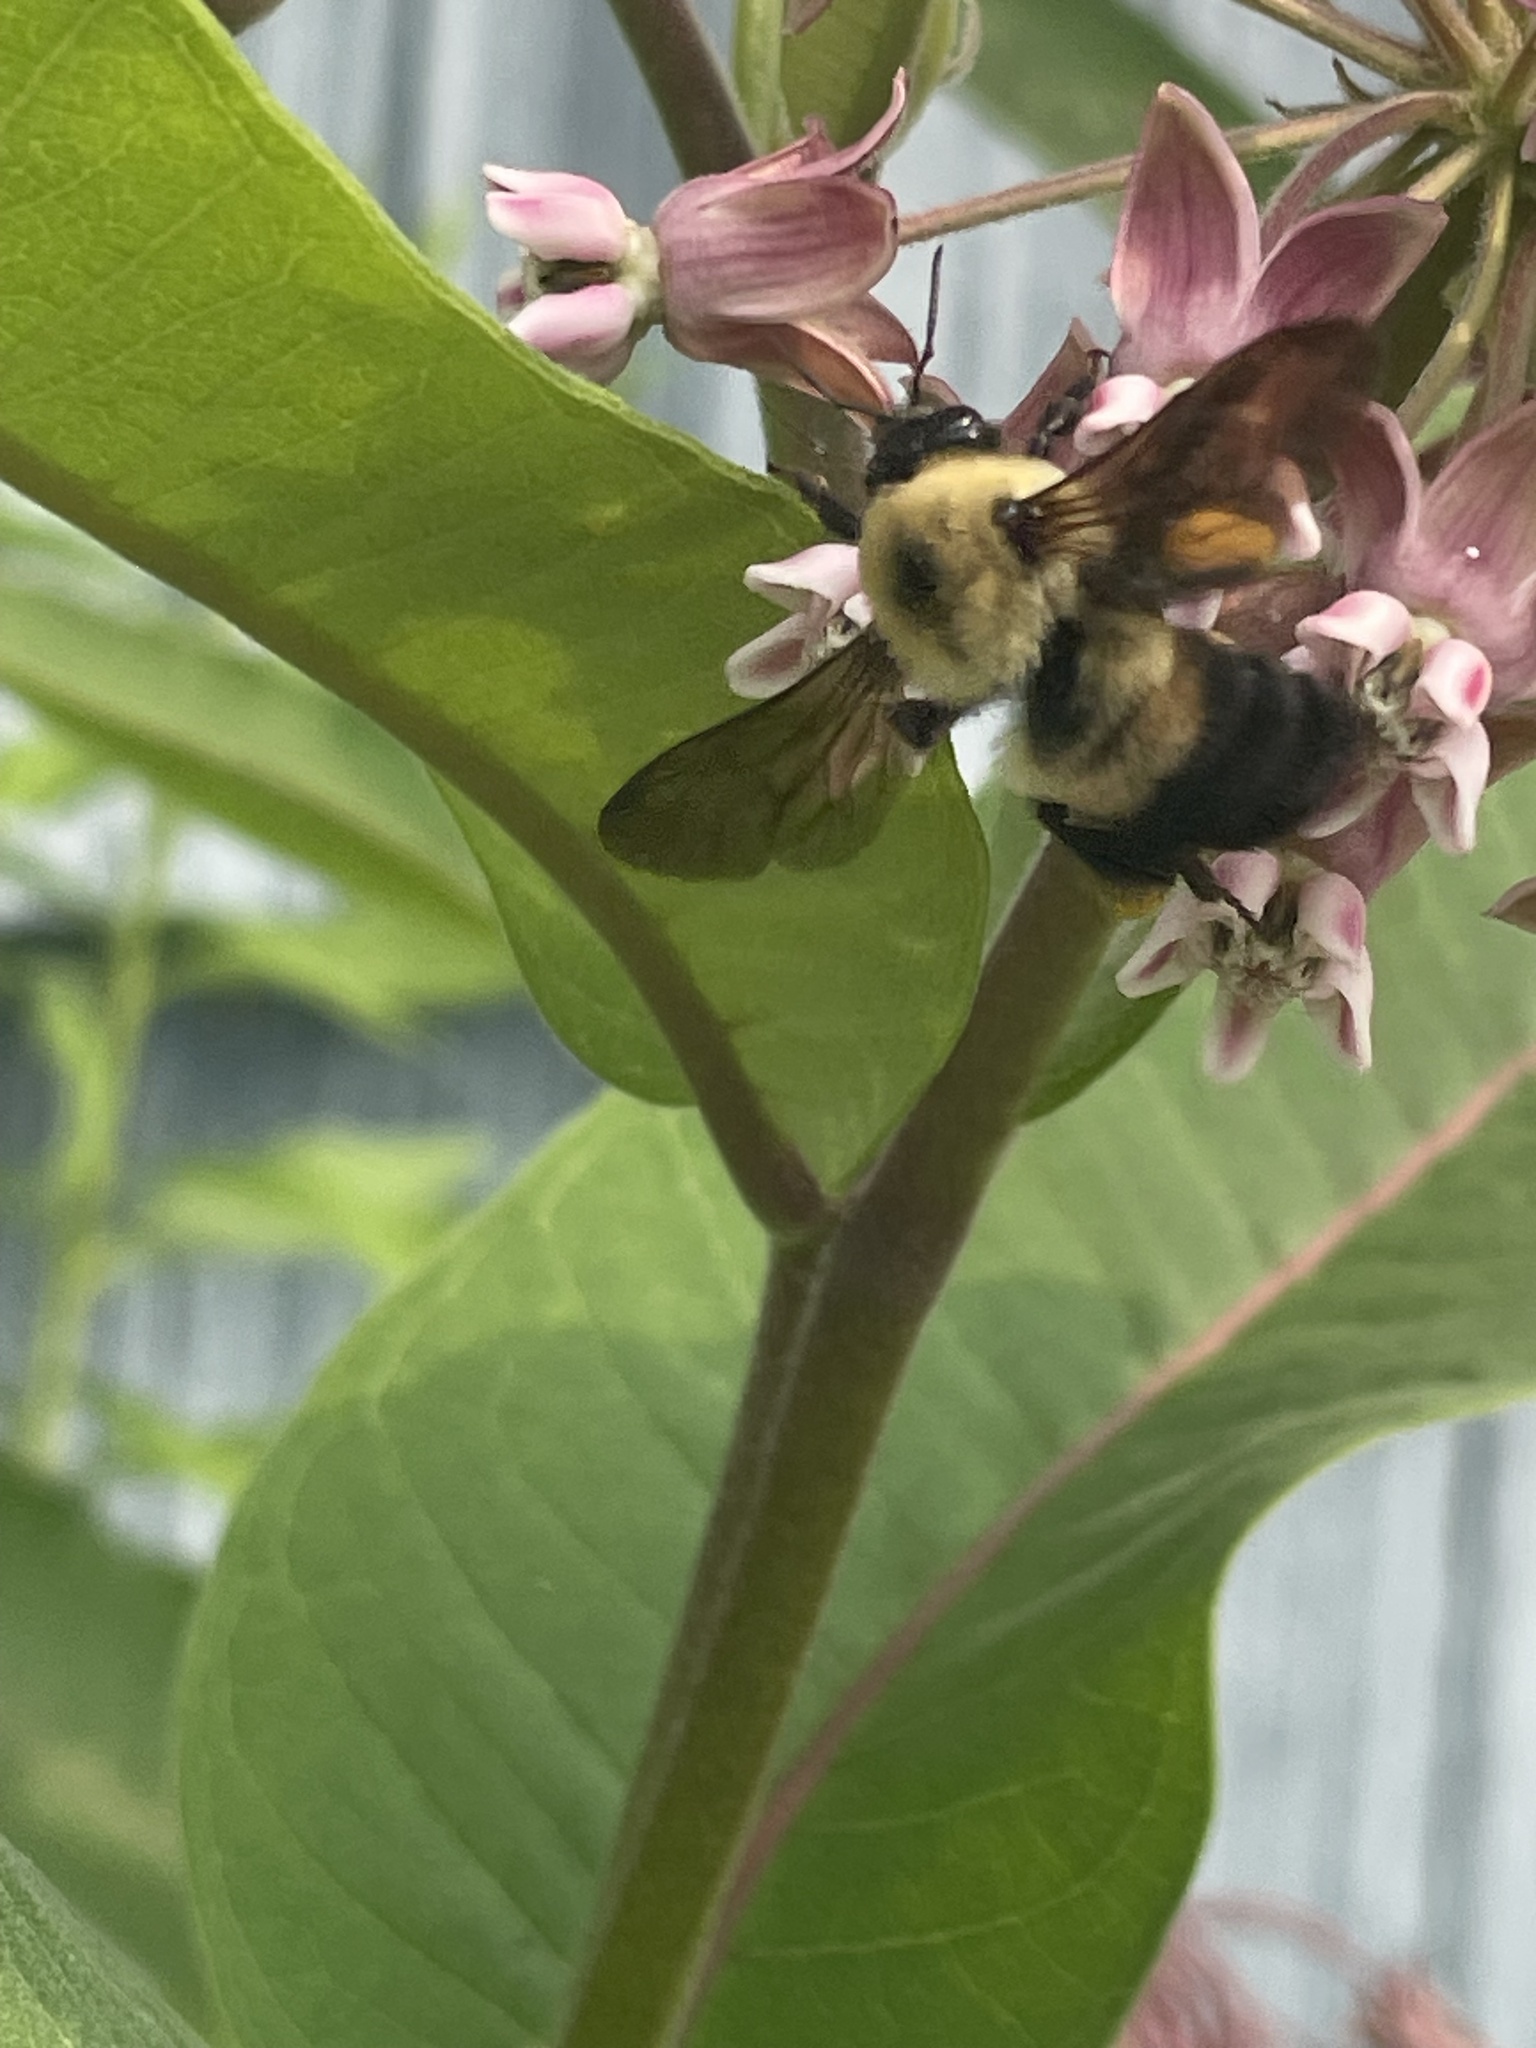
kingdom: Animalia
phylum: Arthropoda
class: Insecta
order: Hymenoptera
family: Apidae
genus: Bombus
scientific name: Bombus griseocollis
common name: Brown-belted bumble bee
